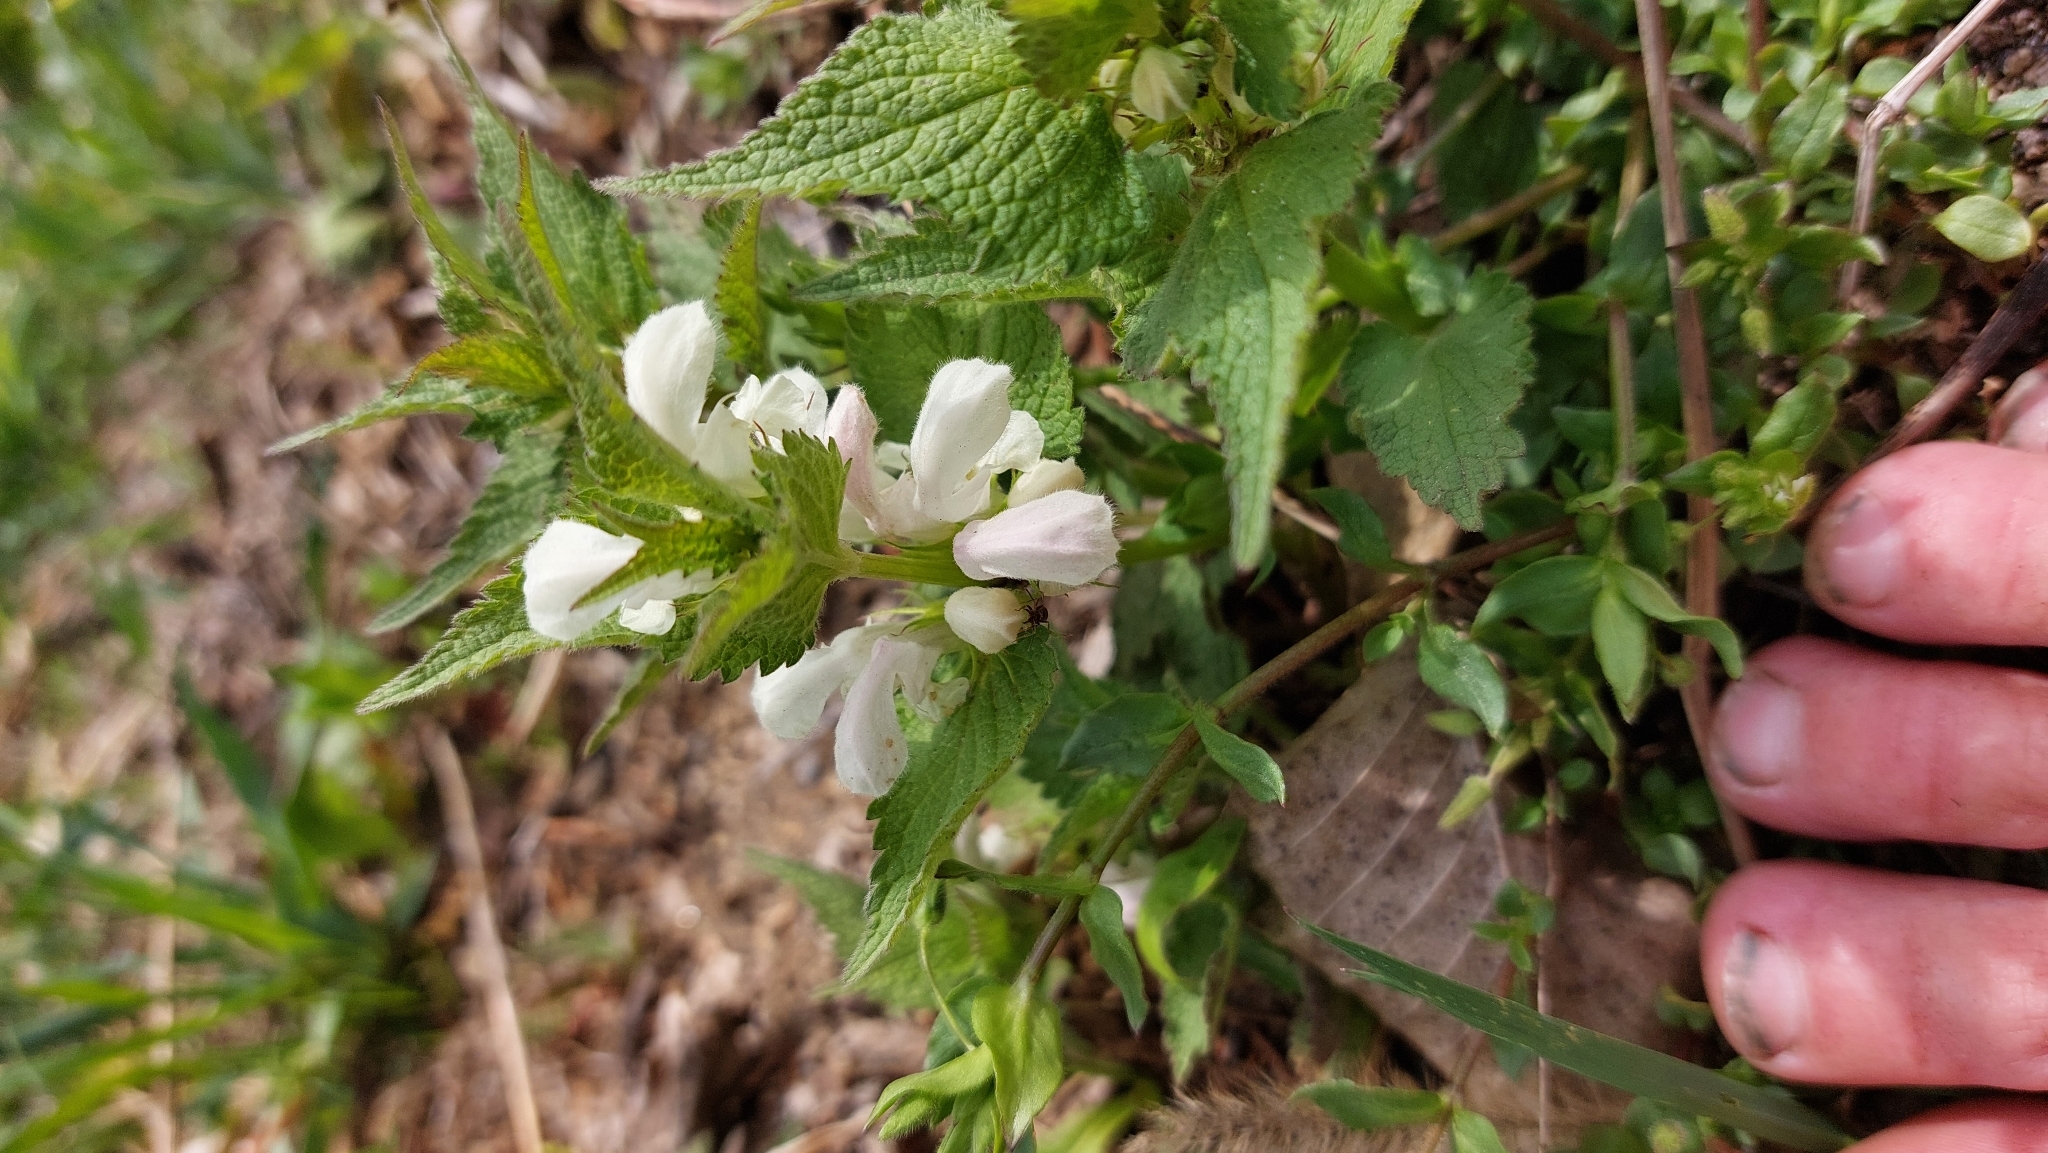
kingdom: Plantae
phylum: Tracheophyta
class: Magnoliopsida
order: Lamiales
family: Lamiaceae
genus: Lamium
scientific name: Lamium album
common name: White dead-nettle
